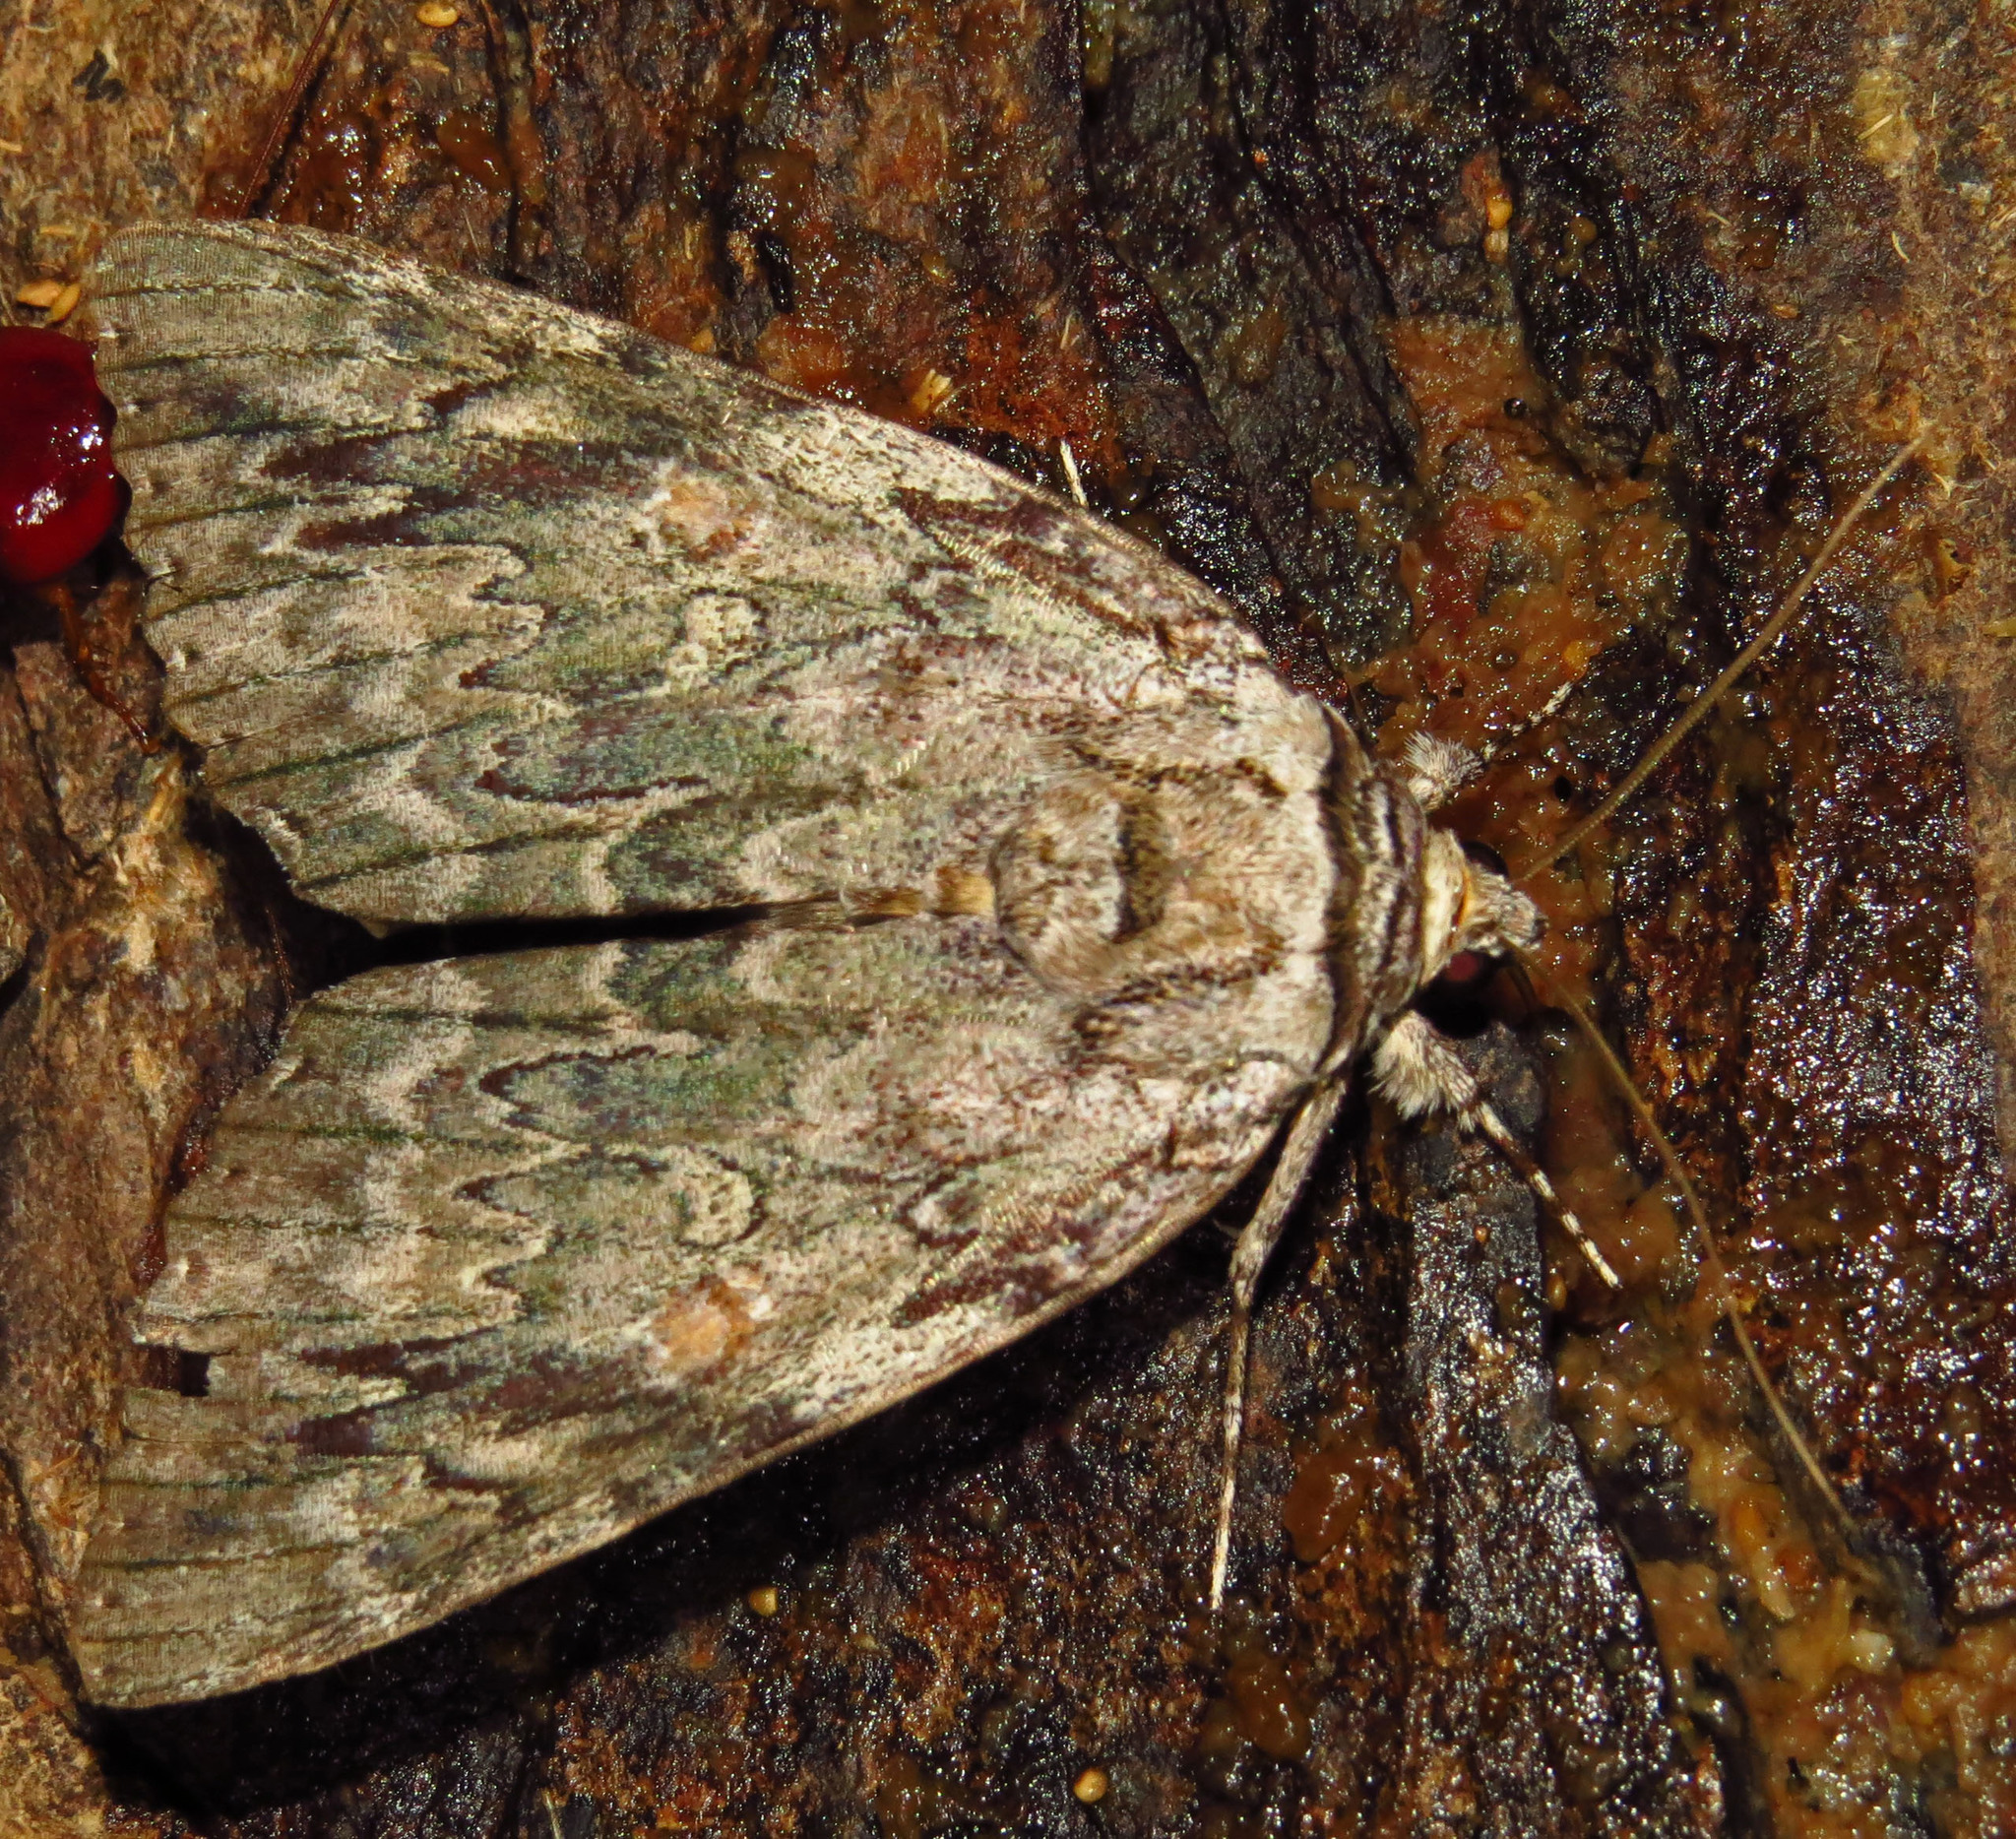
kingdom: Animalia
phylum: Arthropoda
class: Insecta
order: Lepidoptera
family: Erebidae
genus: Catocala
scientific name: Catocala maestosa
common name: Sad underwing
